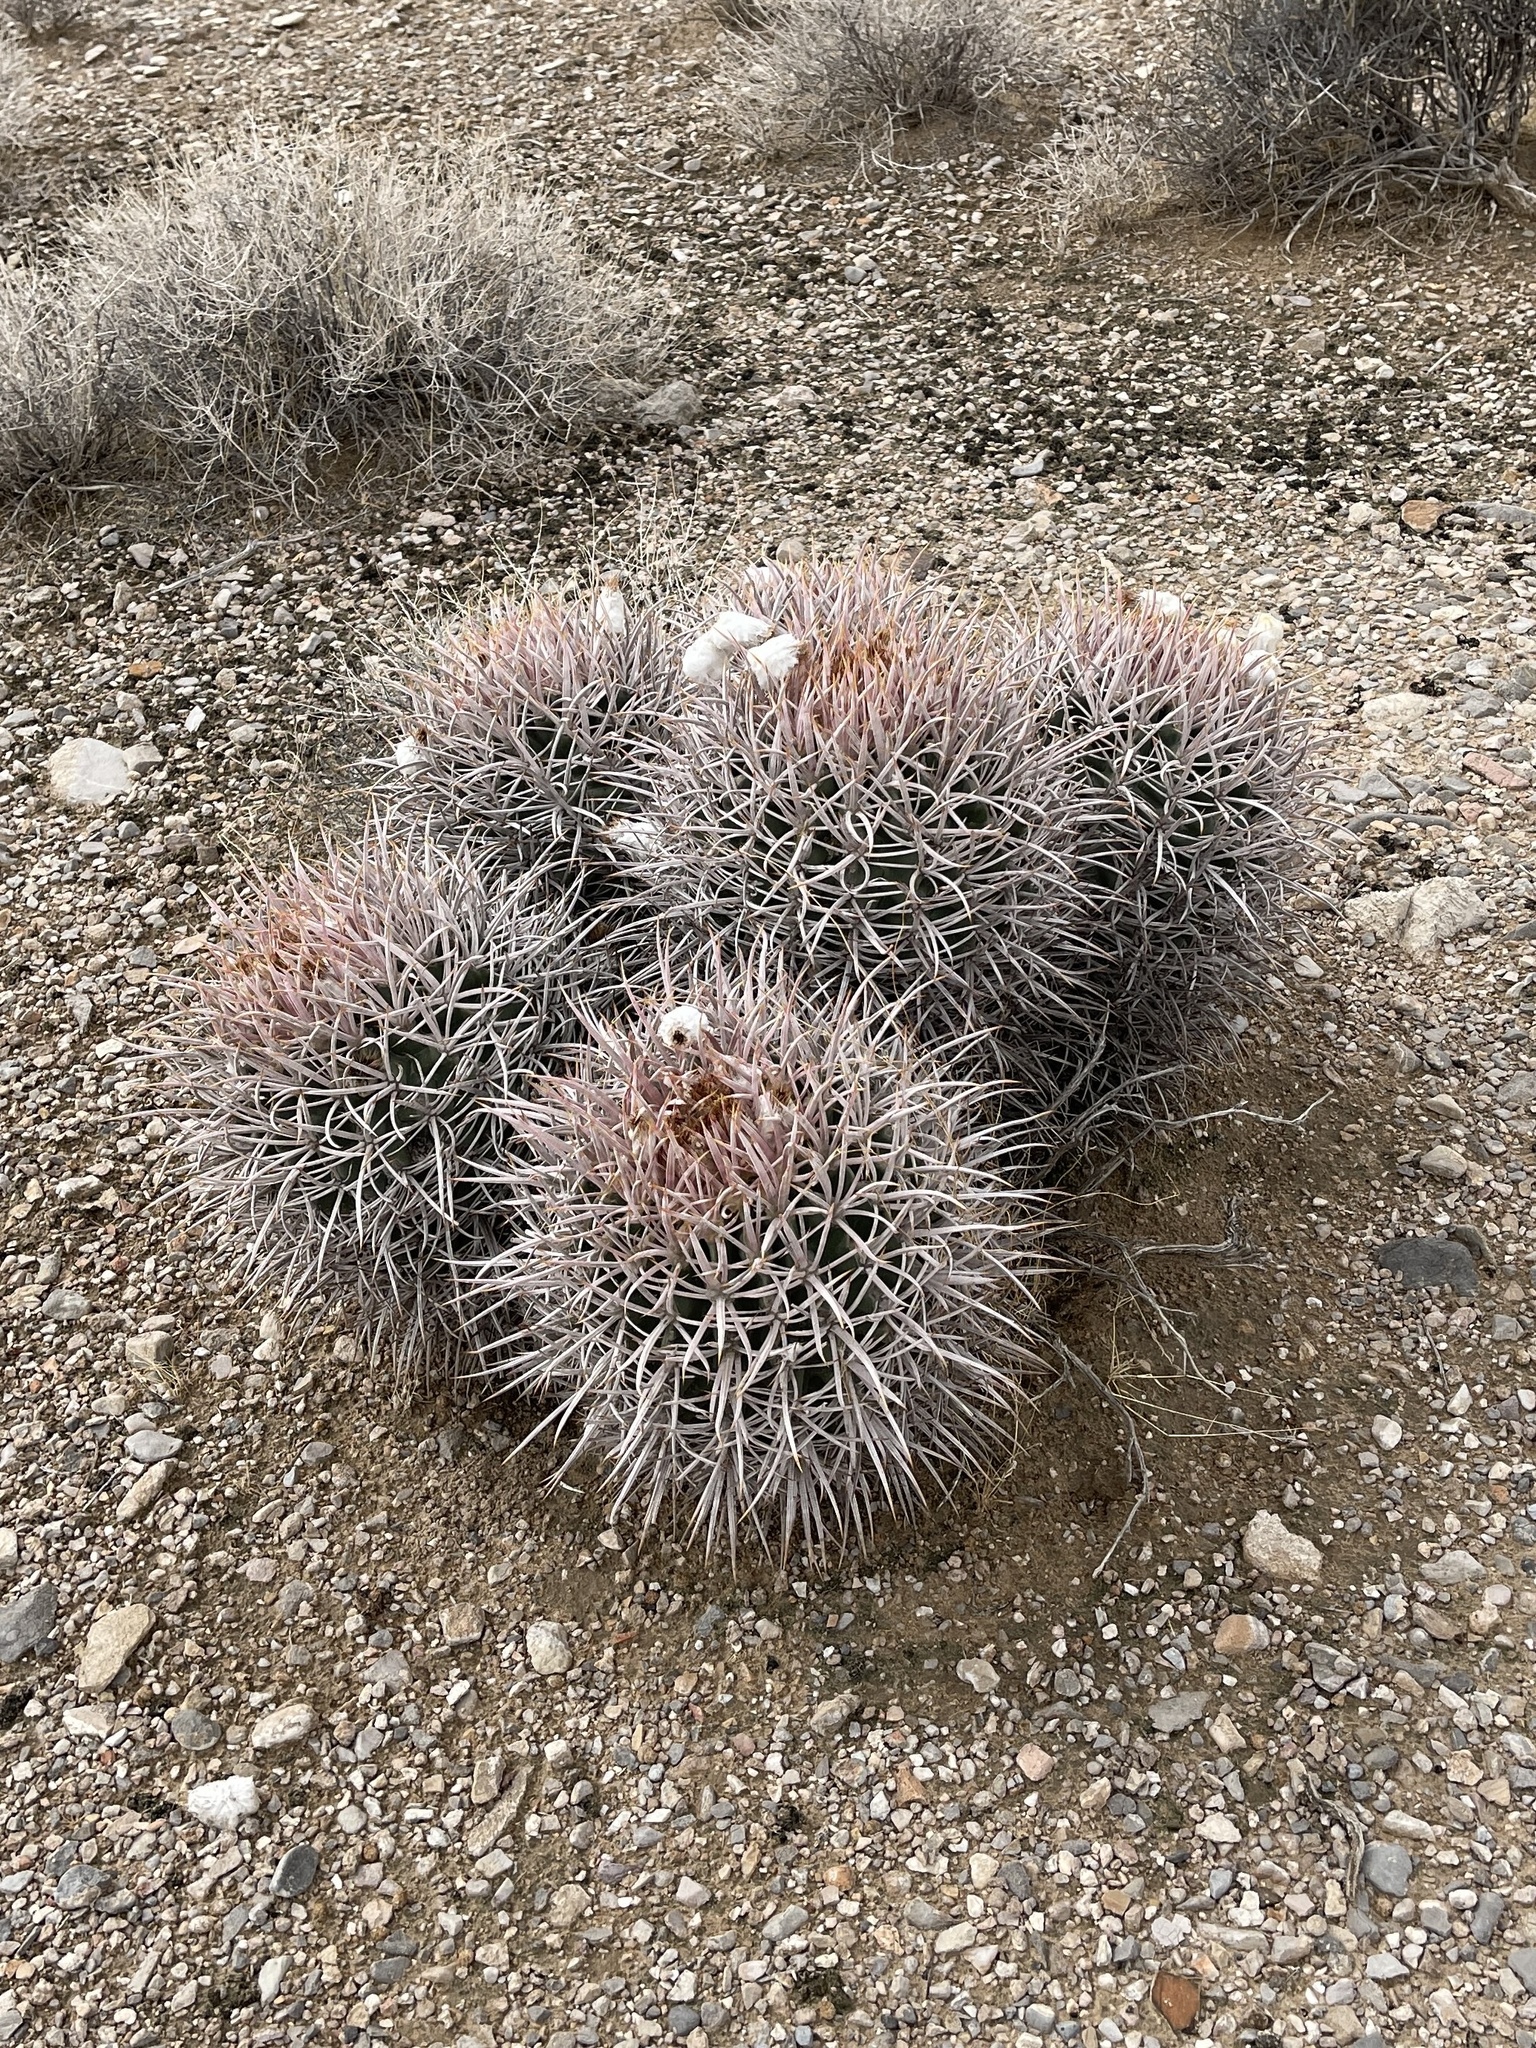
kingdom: Plantae
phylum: Tracheophyta
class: Magnoliopsida
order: Caryophyllales
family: Cactaceae
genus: Echinocactus
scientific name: Echinocactus polycephalus
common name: Cottontop cactus
